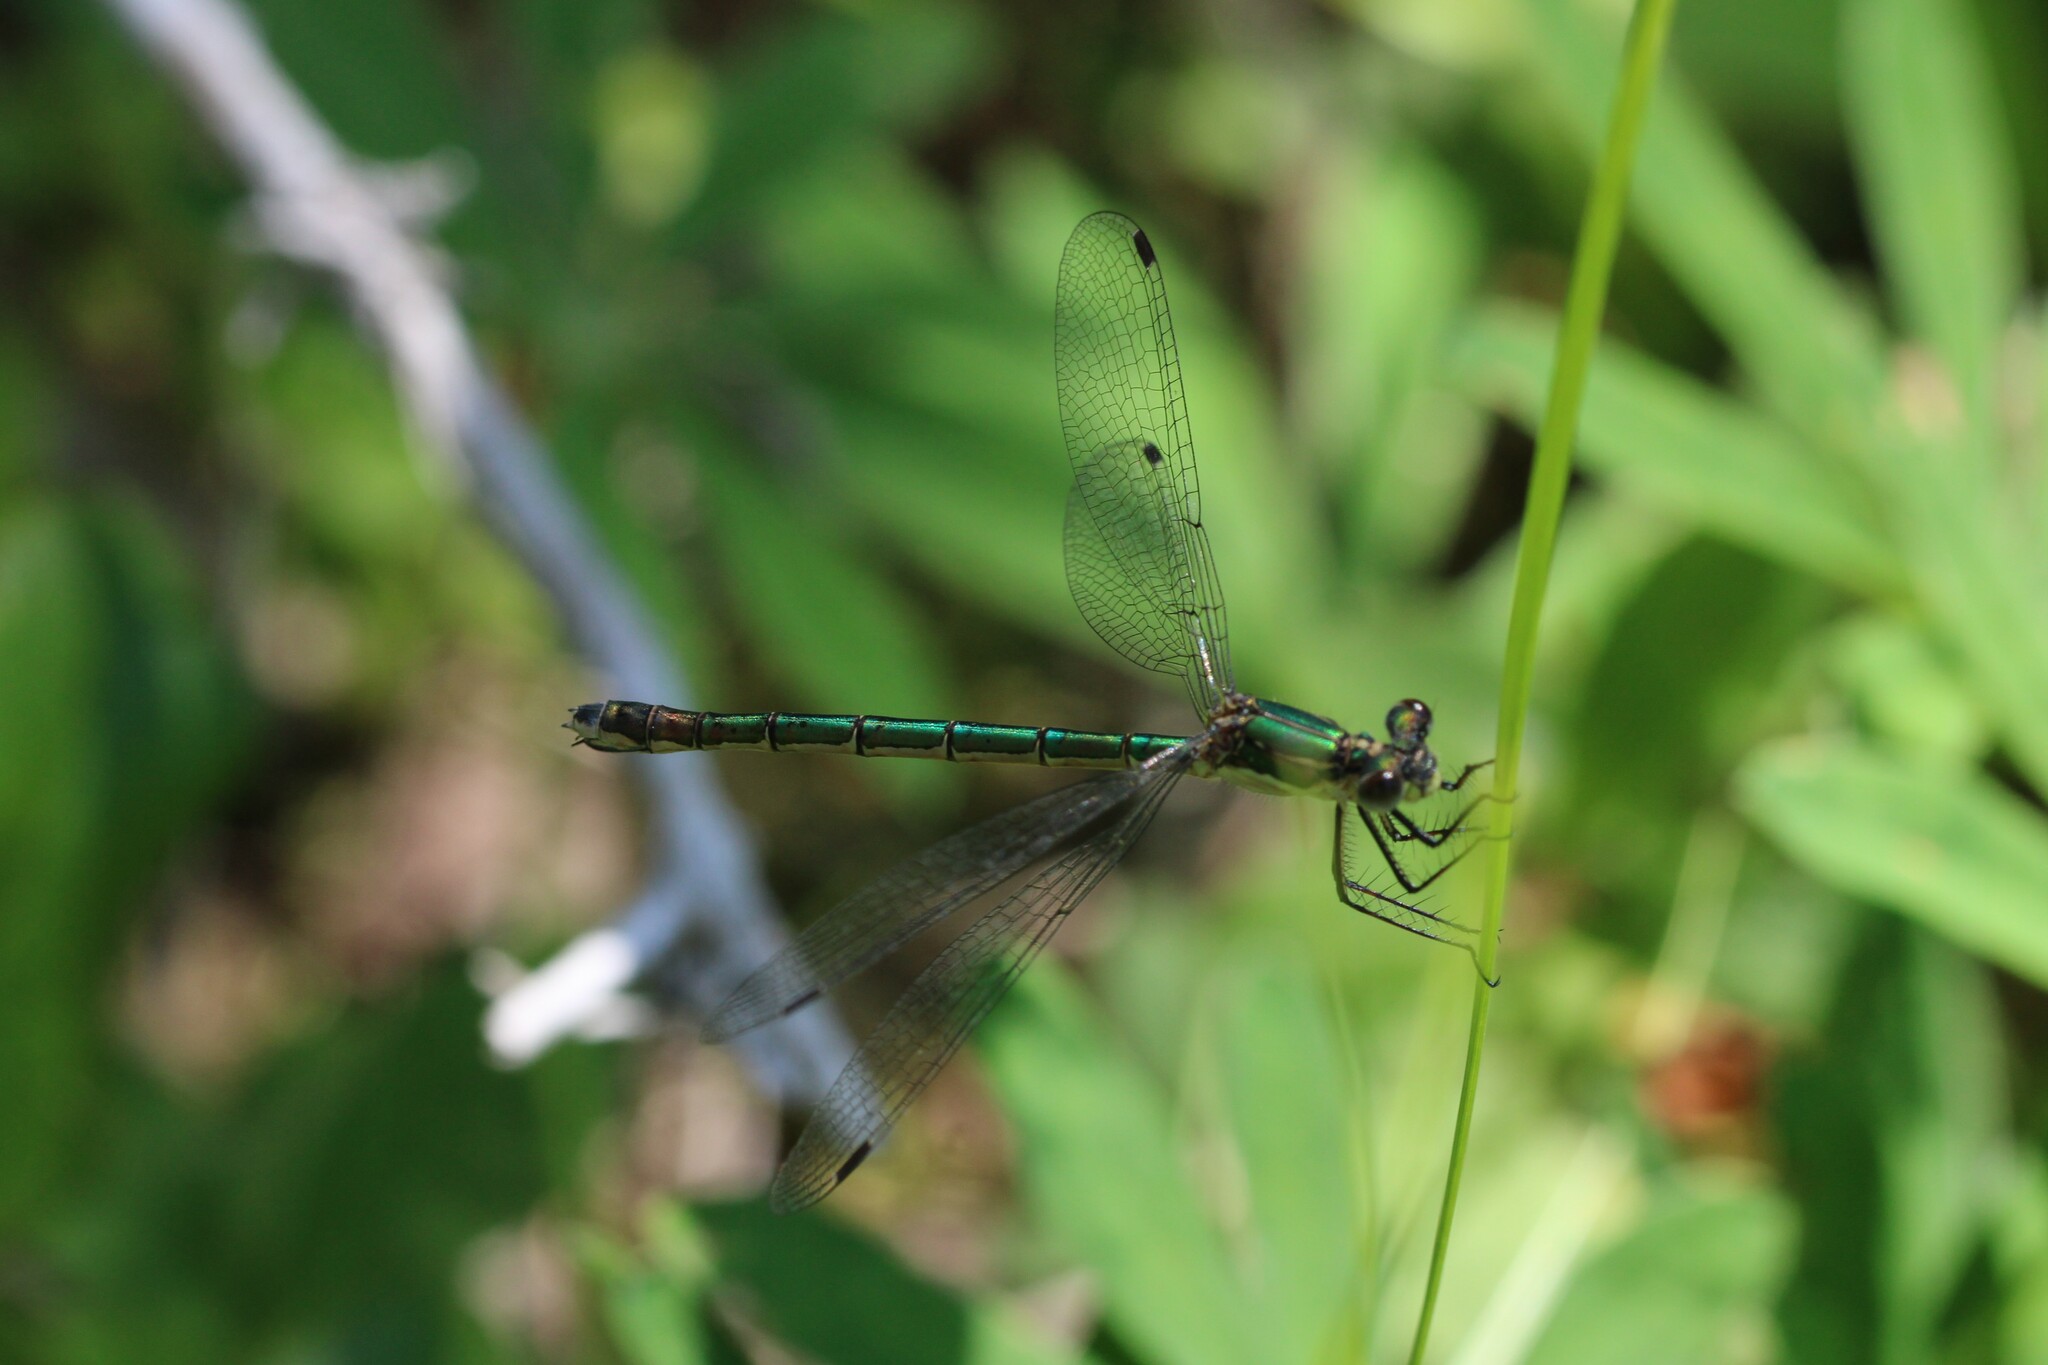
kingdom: Animalia
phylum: Arthropoda
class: Insecta
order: Odonata
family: Lestidae
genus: Lestes
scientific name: Lestes dryas
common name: Scarce emerald damselfly
